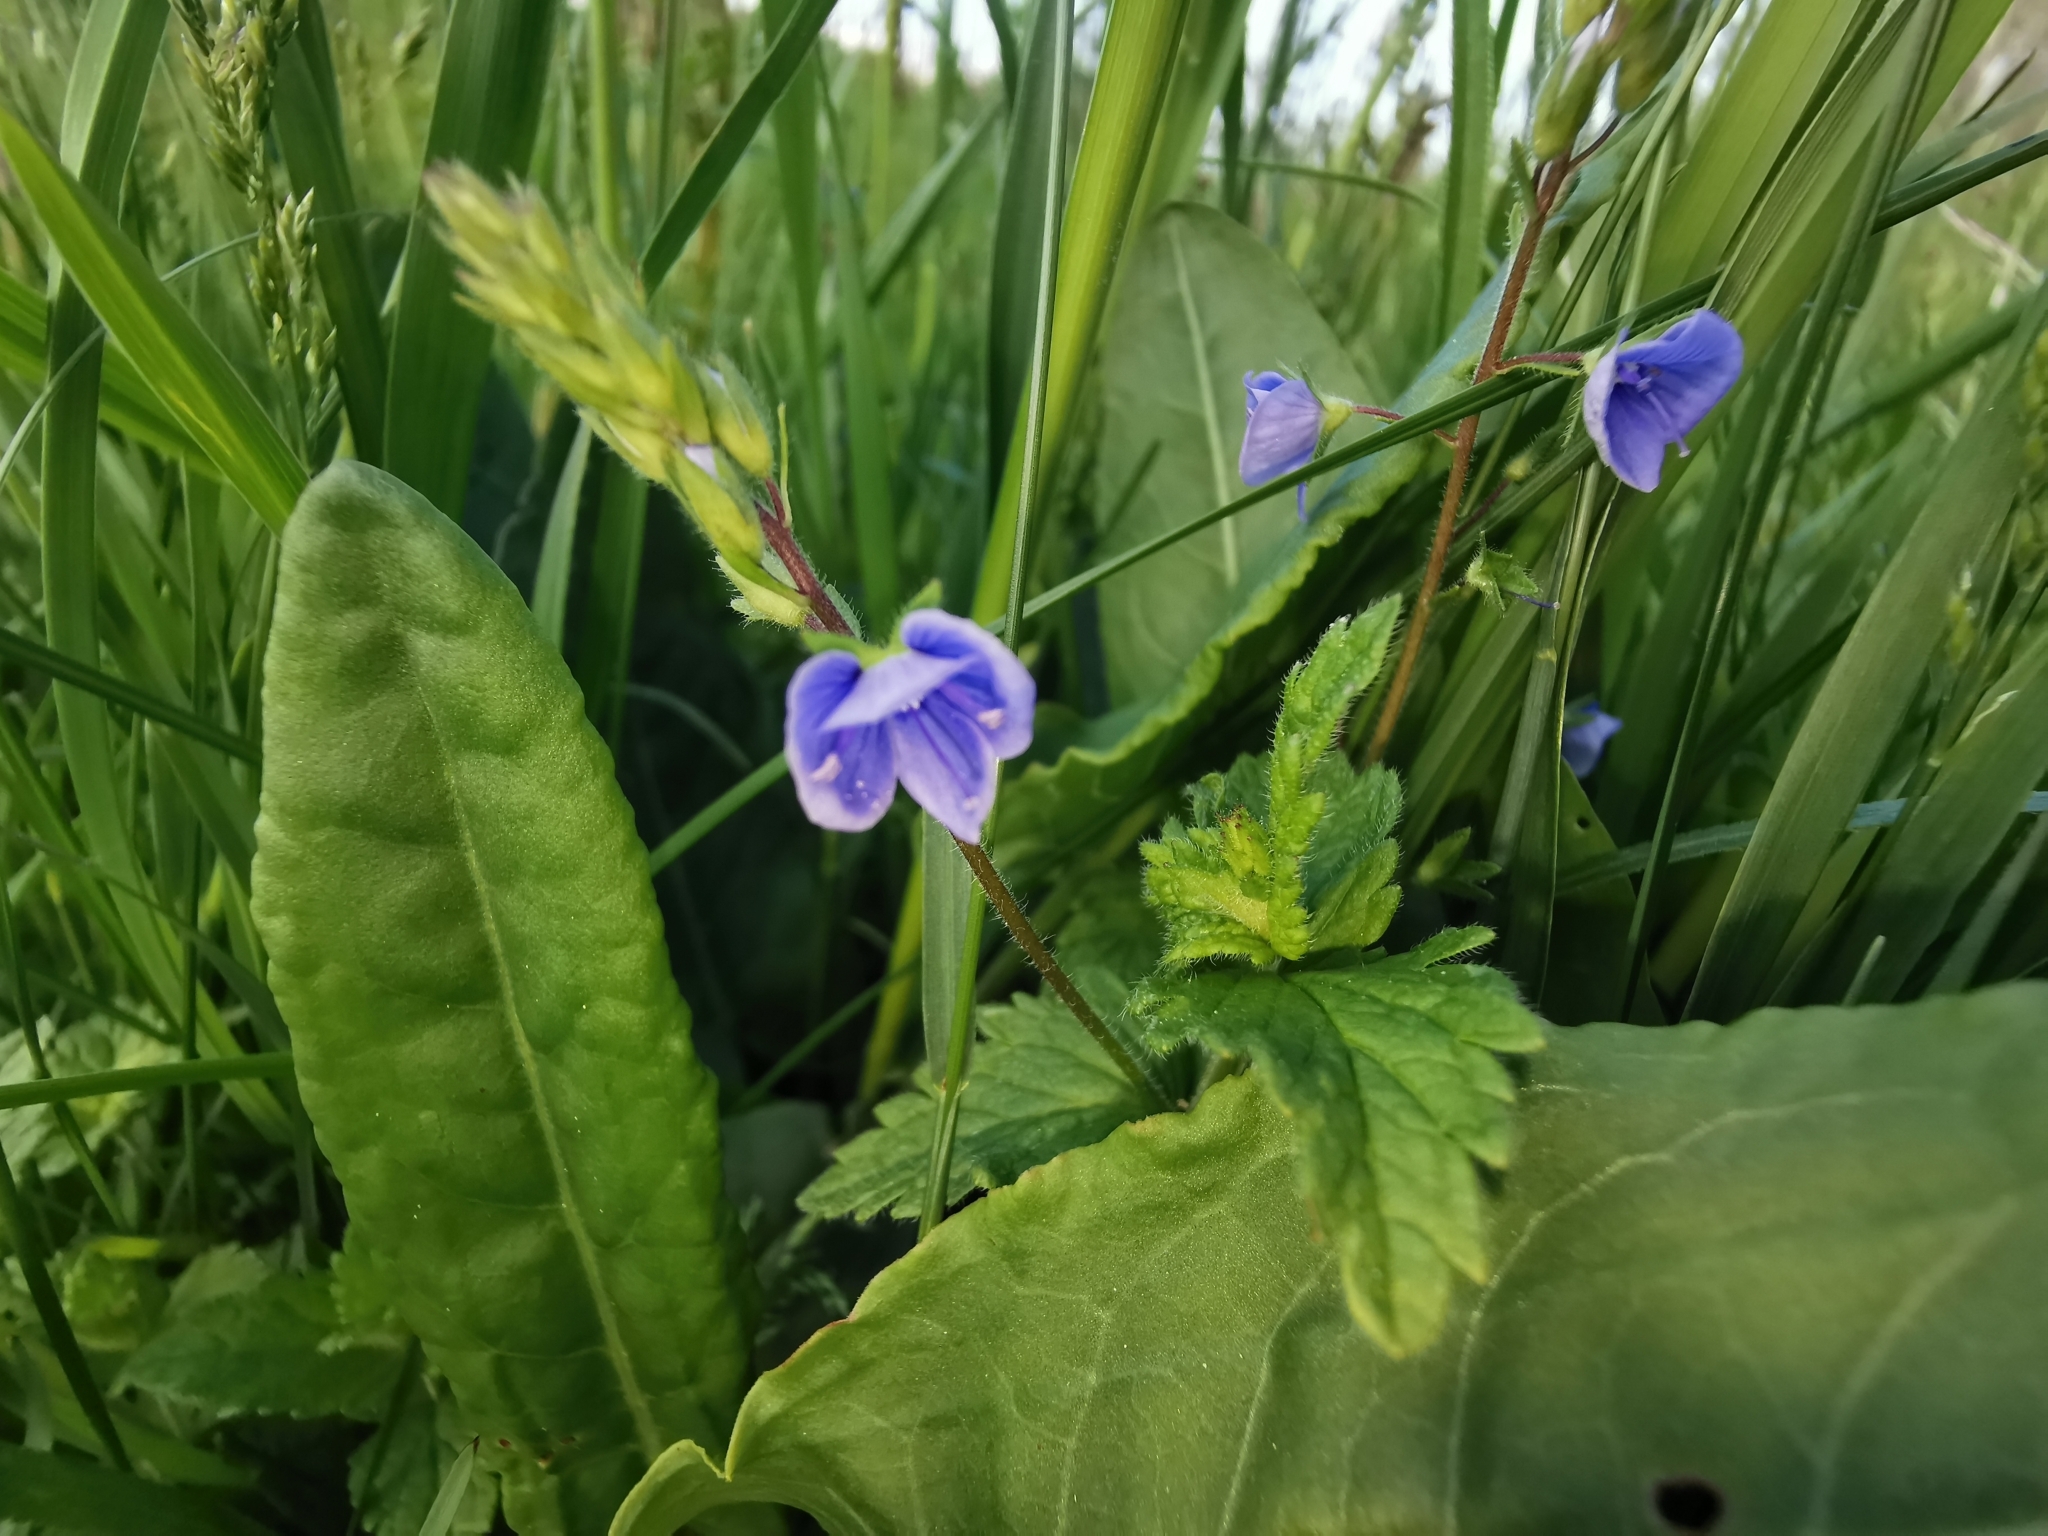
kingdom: Plantae
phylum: Tracheophyta
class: Magnoliopsida
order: Lamiales
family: Plantaginaceae
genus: Veronica
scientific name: Veronica chamaedrys
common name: Germander speedwell
